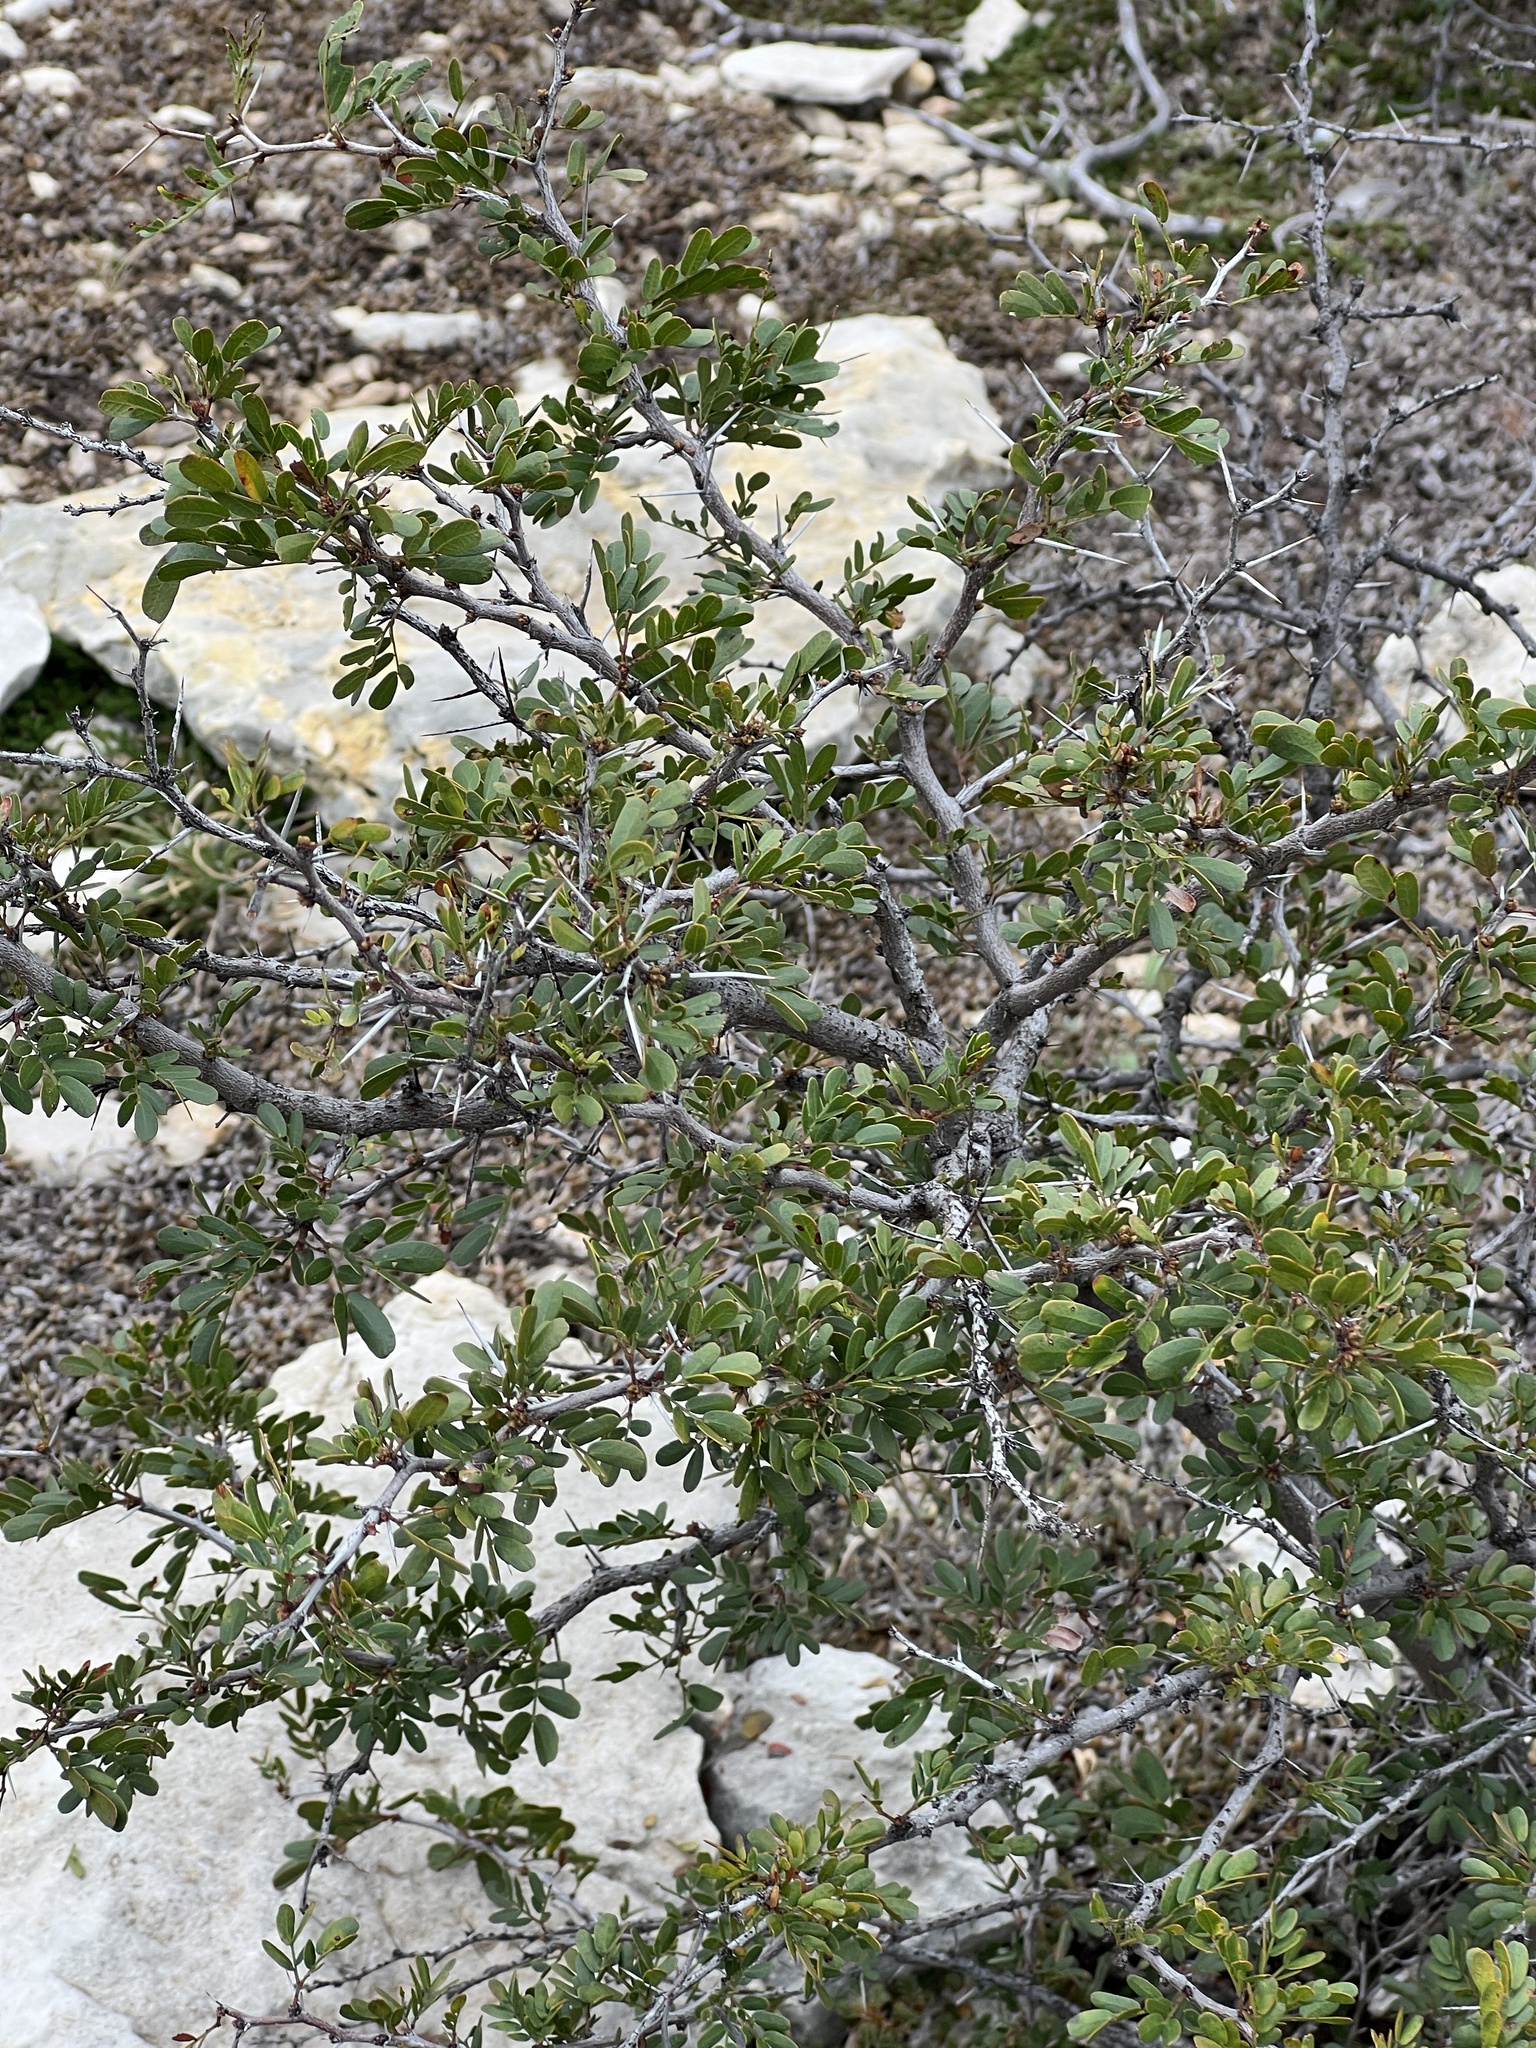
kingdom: Plantae
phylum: Tracheophyta
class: Magnoliopsida
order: Fabales
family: Fabaceae
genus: Vachellia
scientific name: Vachellia rigidula
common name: Blackbrush
